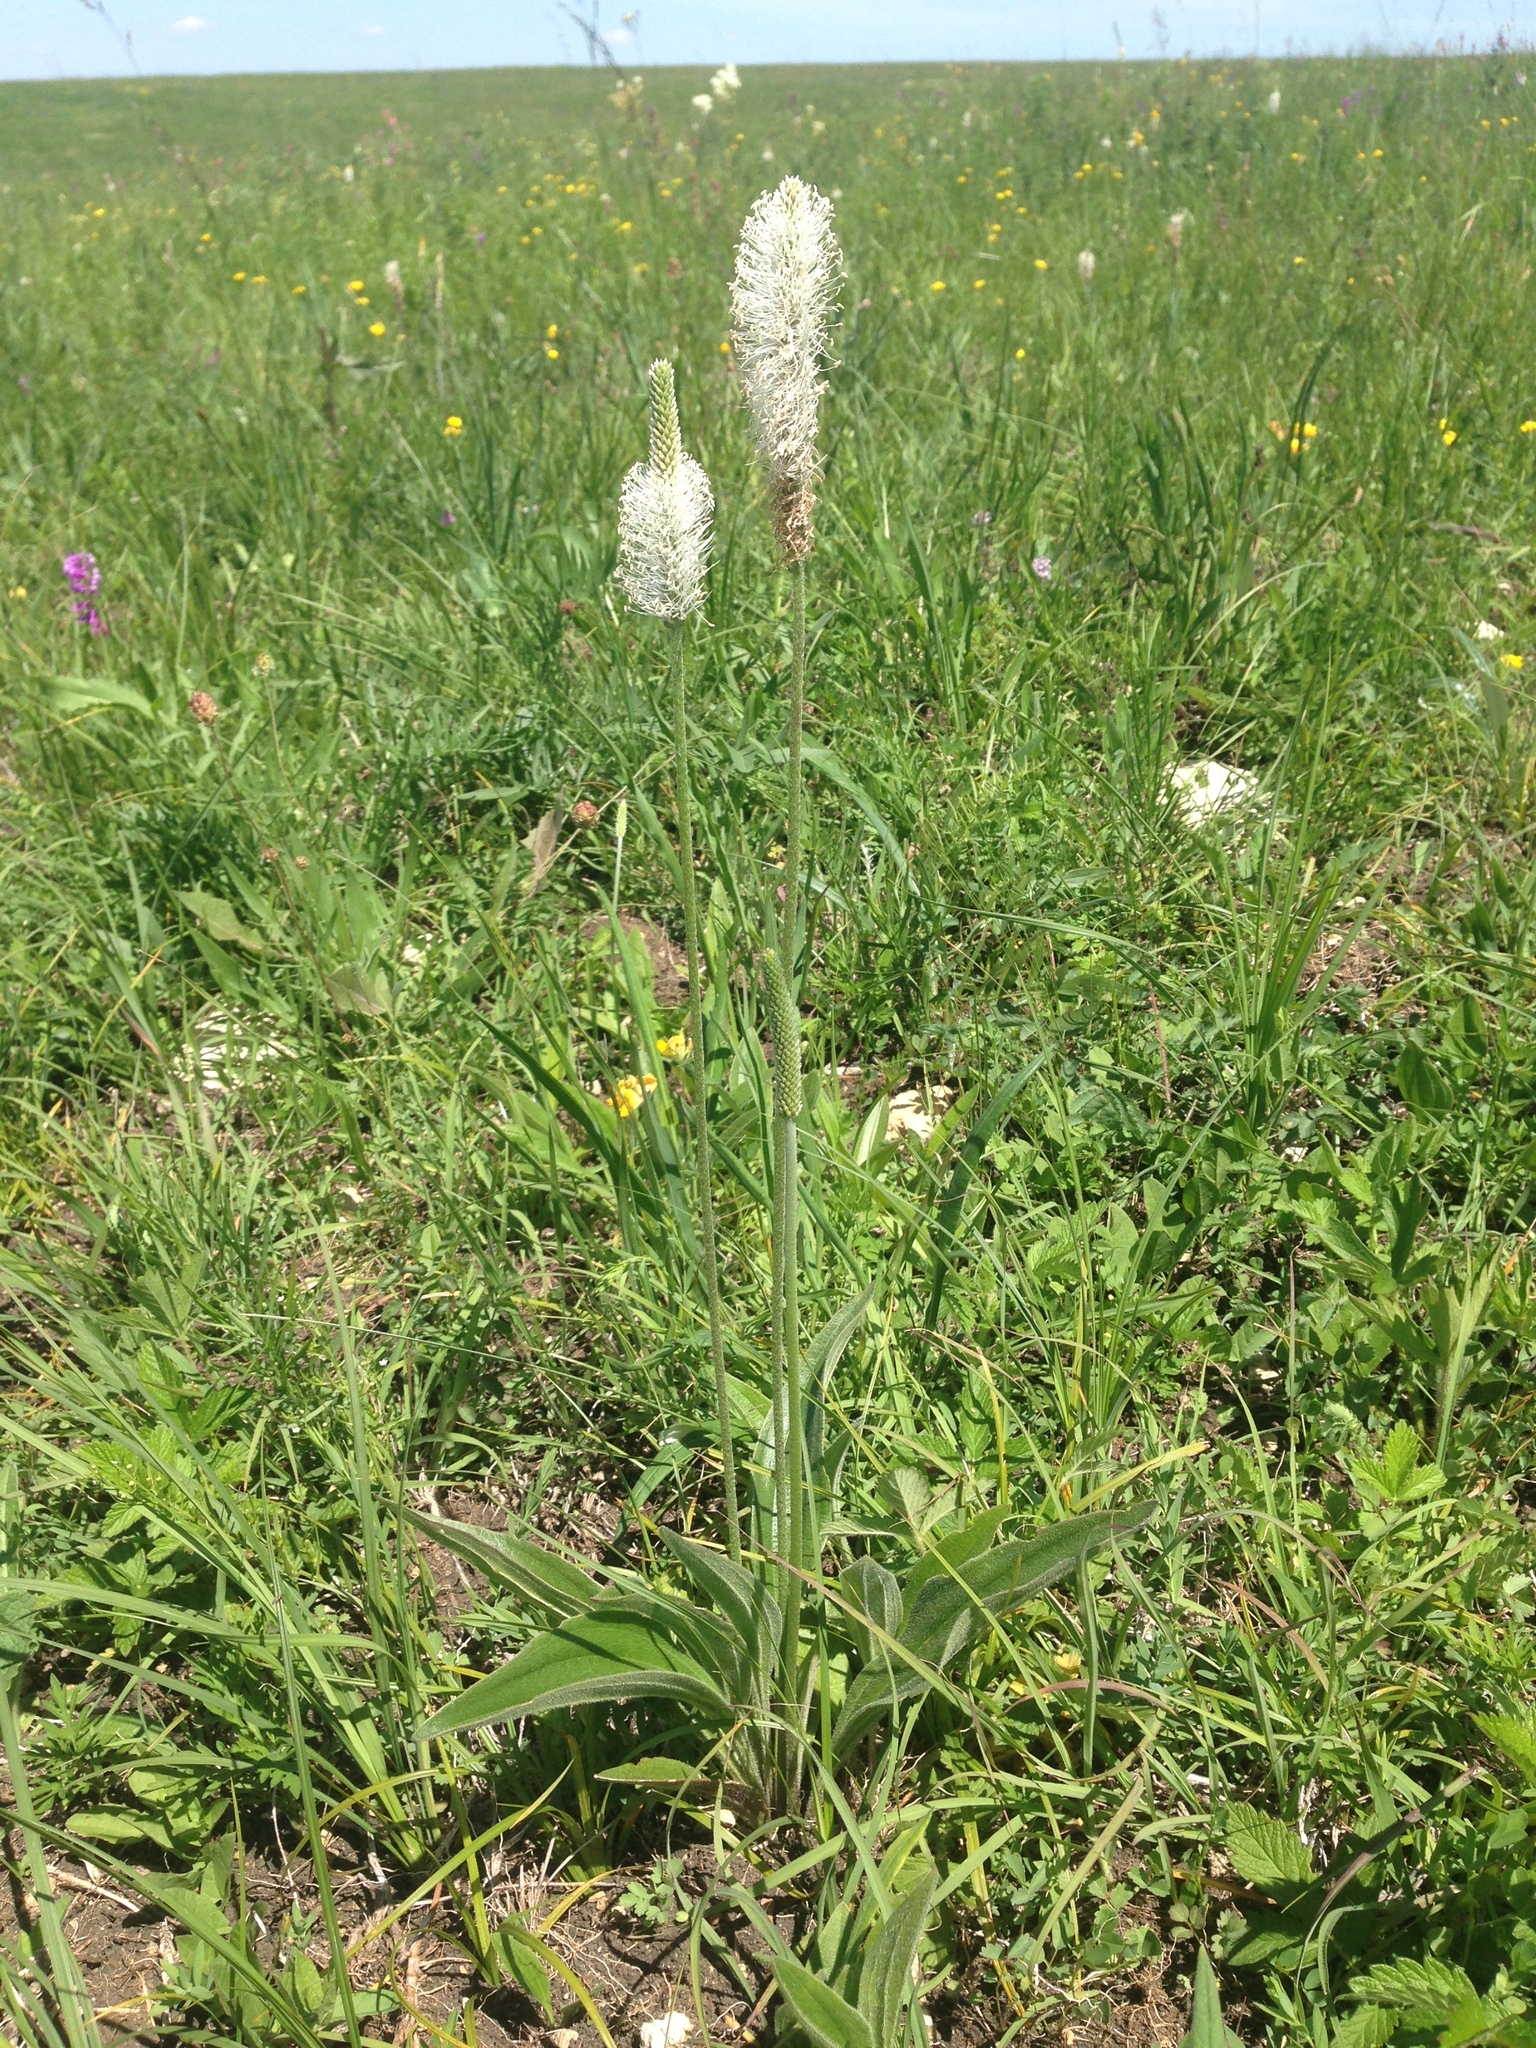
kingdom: Plantae
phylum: Tracheophyta
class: Magnoliopsida
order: Lamiales
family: Plantaginaceae
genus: Plantago
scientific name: Plantago urvillei
